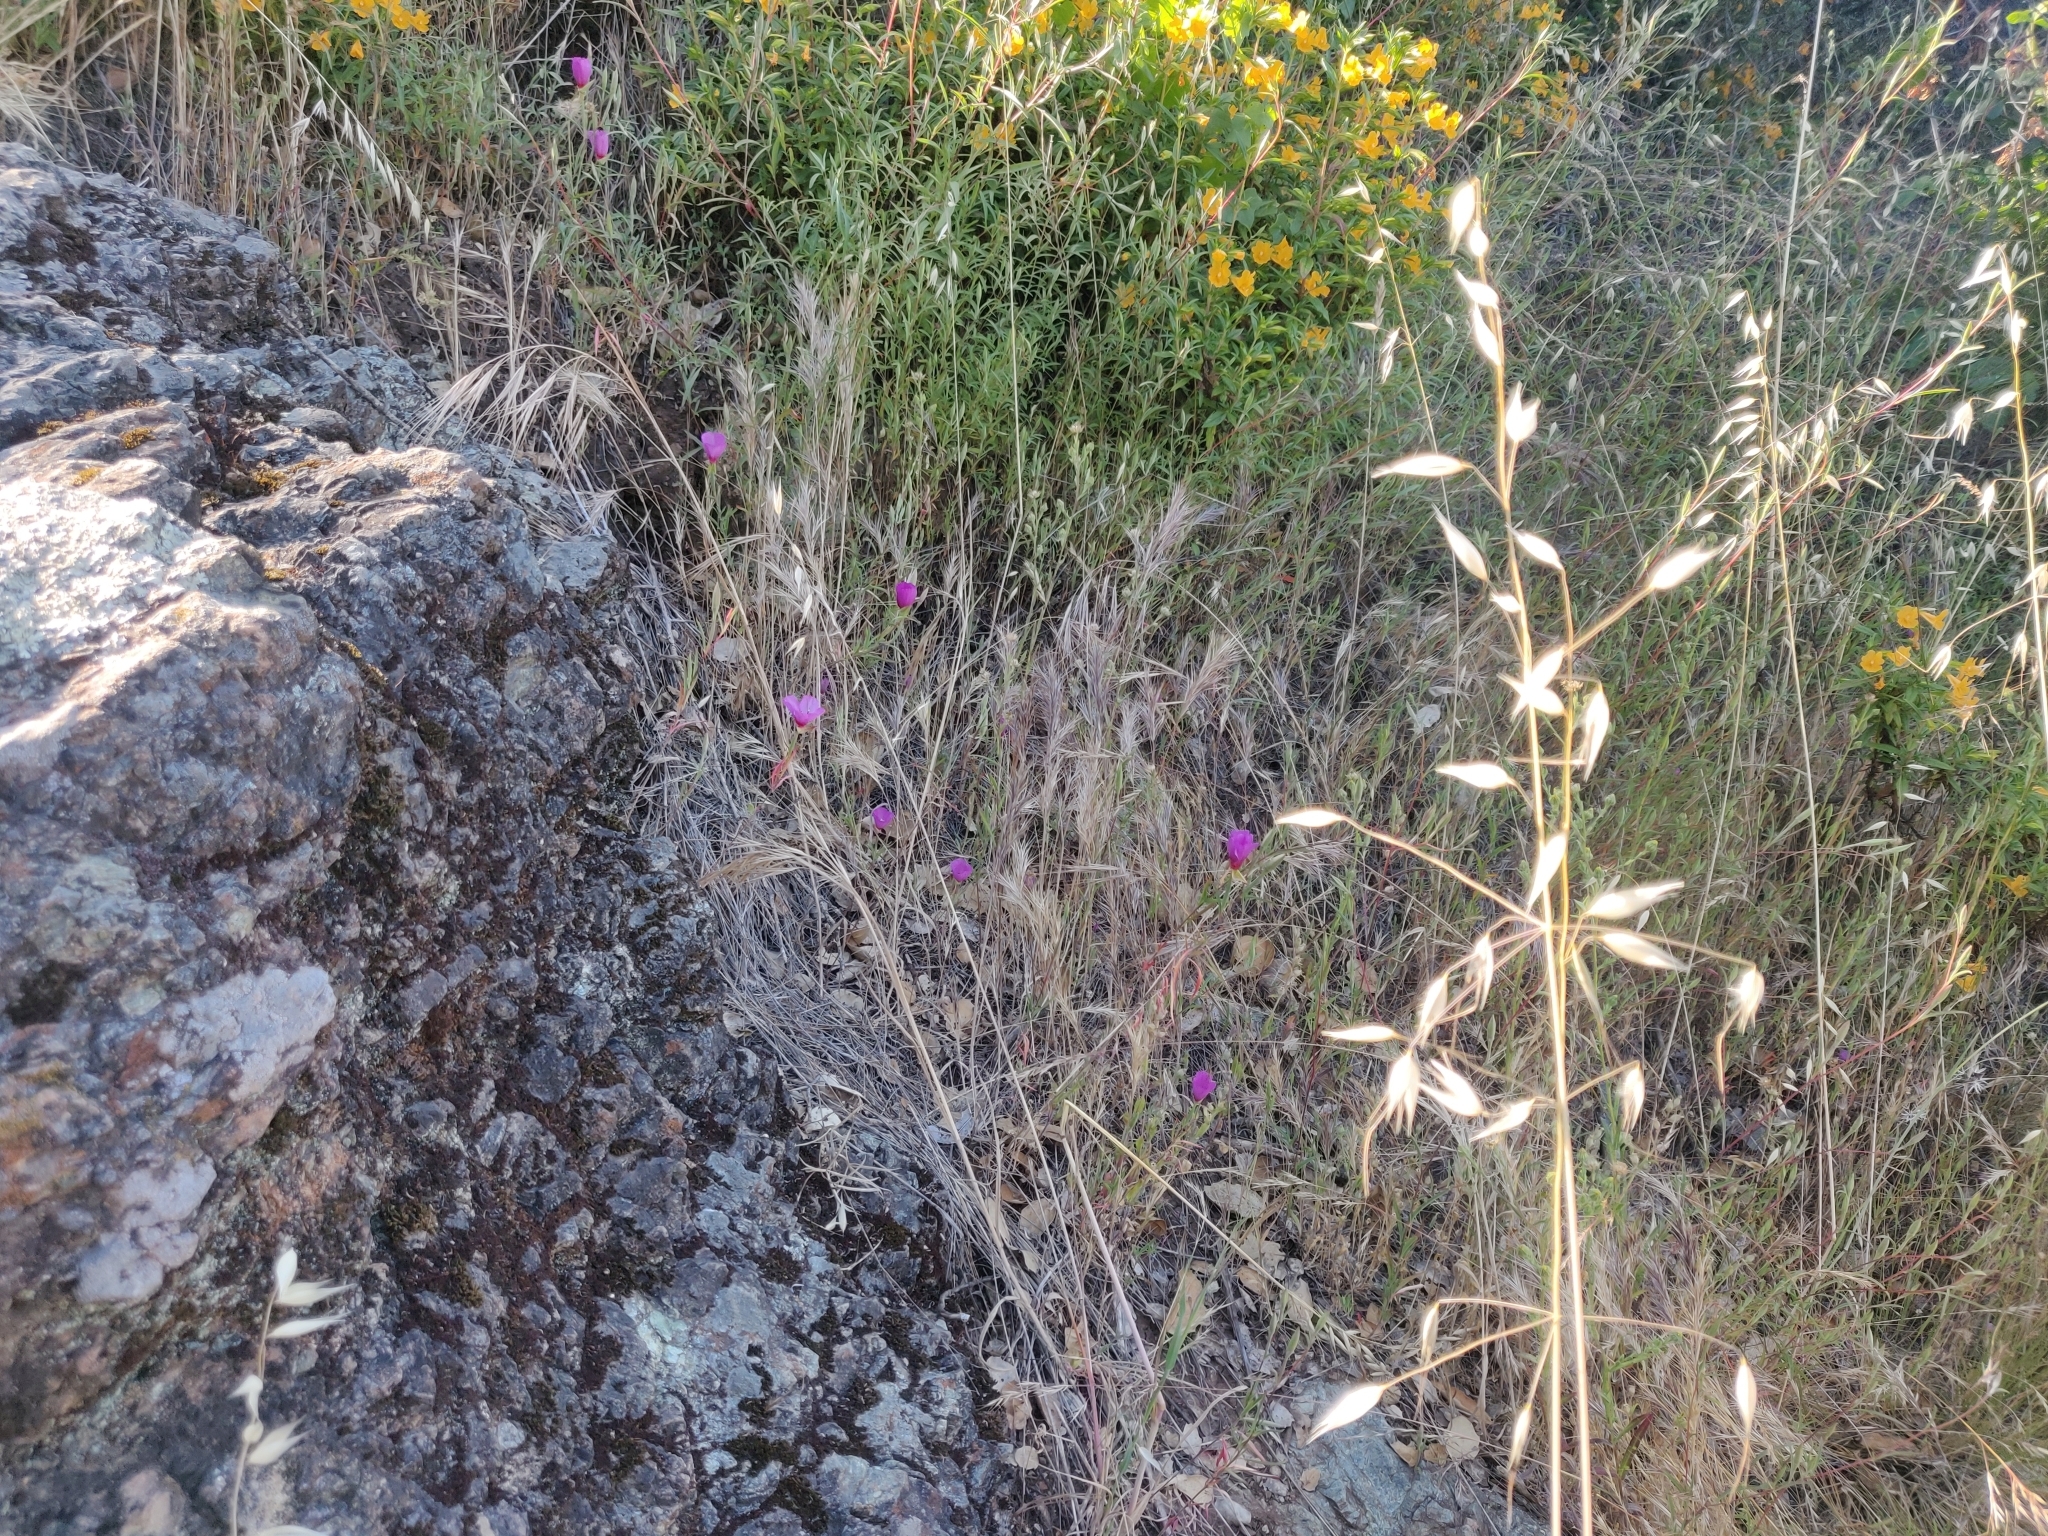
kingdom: Plantae
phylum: Tracheophyta
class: Magnoliopsida
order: Myrtales
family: Onagraceae
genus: Clarkia
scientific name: Clarkia rubicunda
